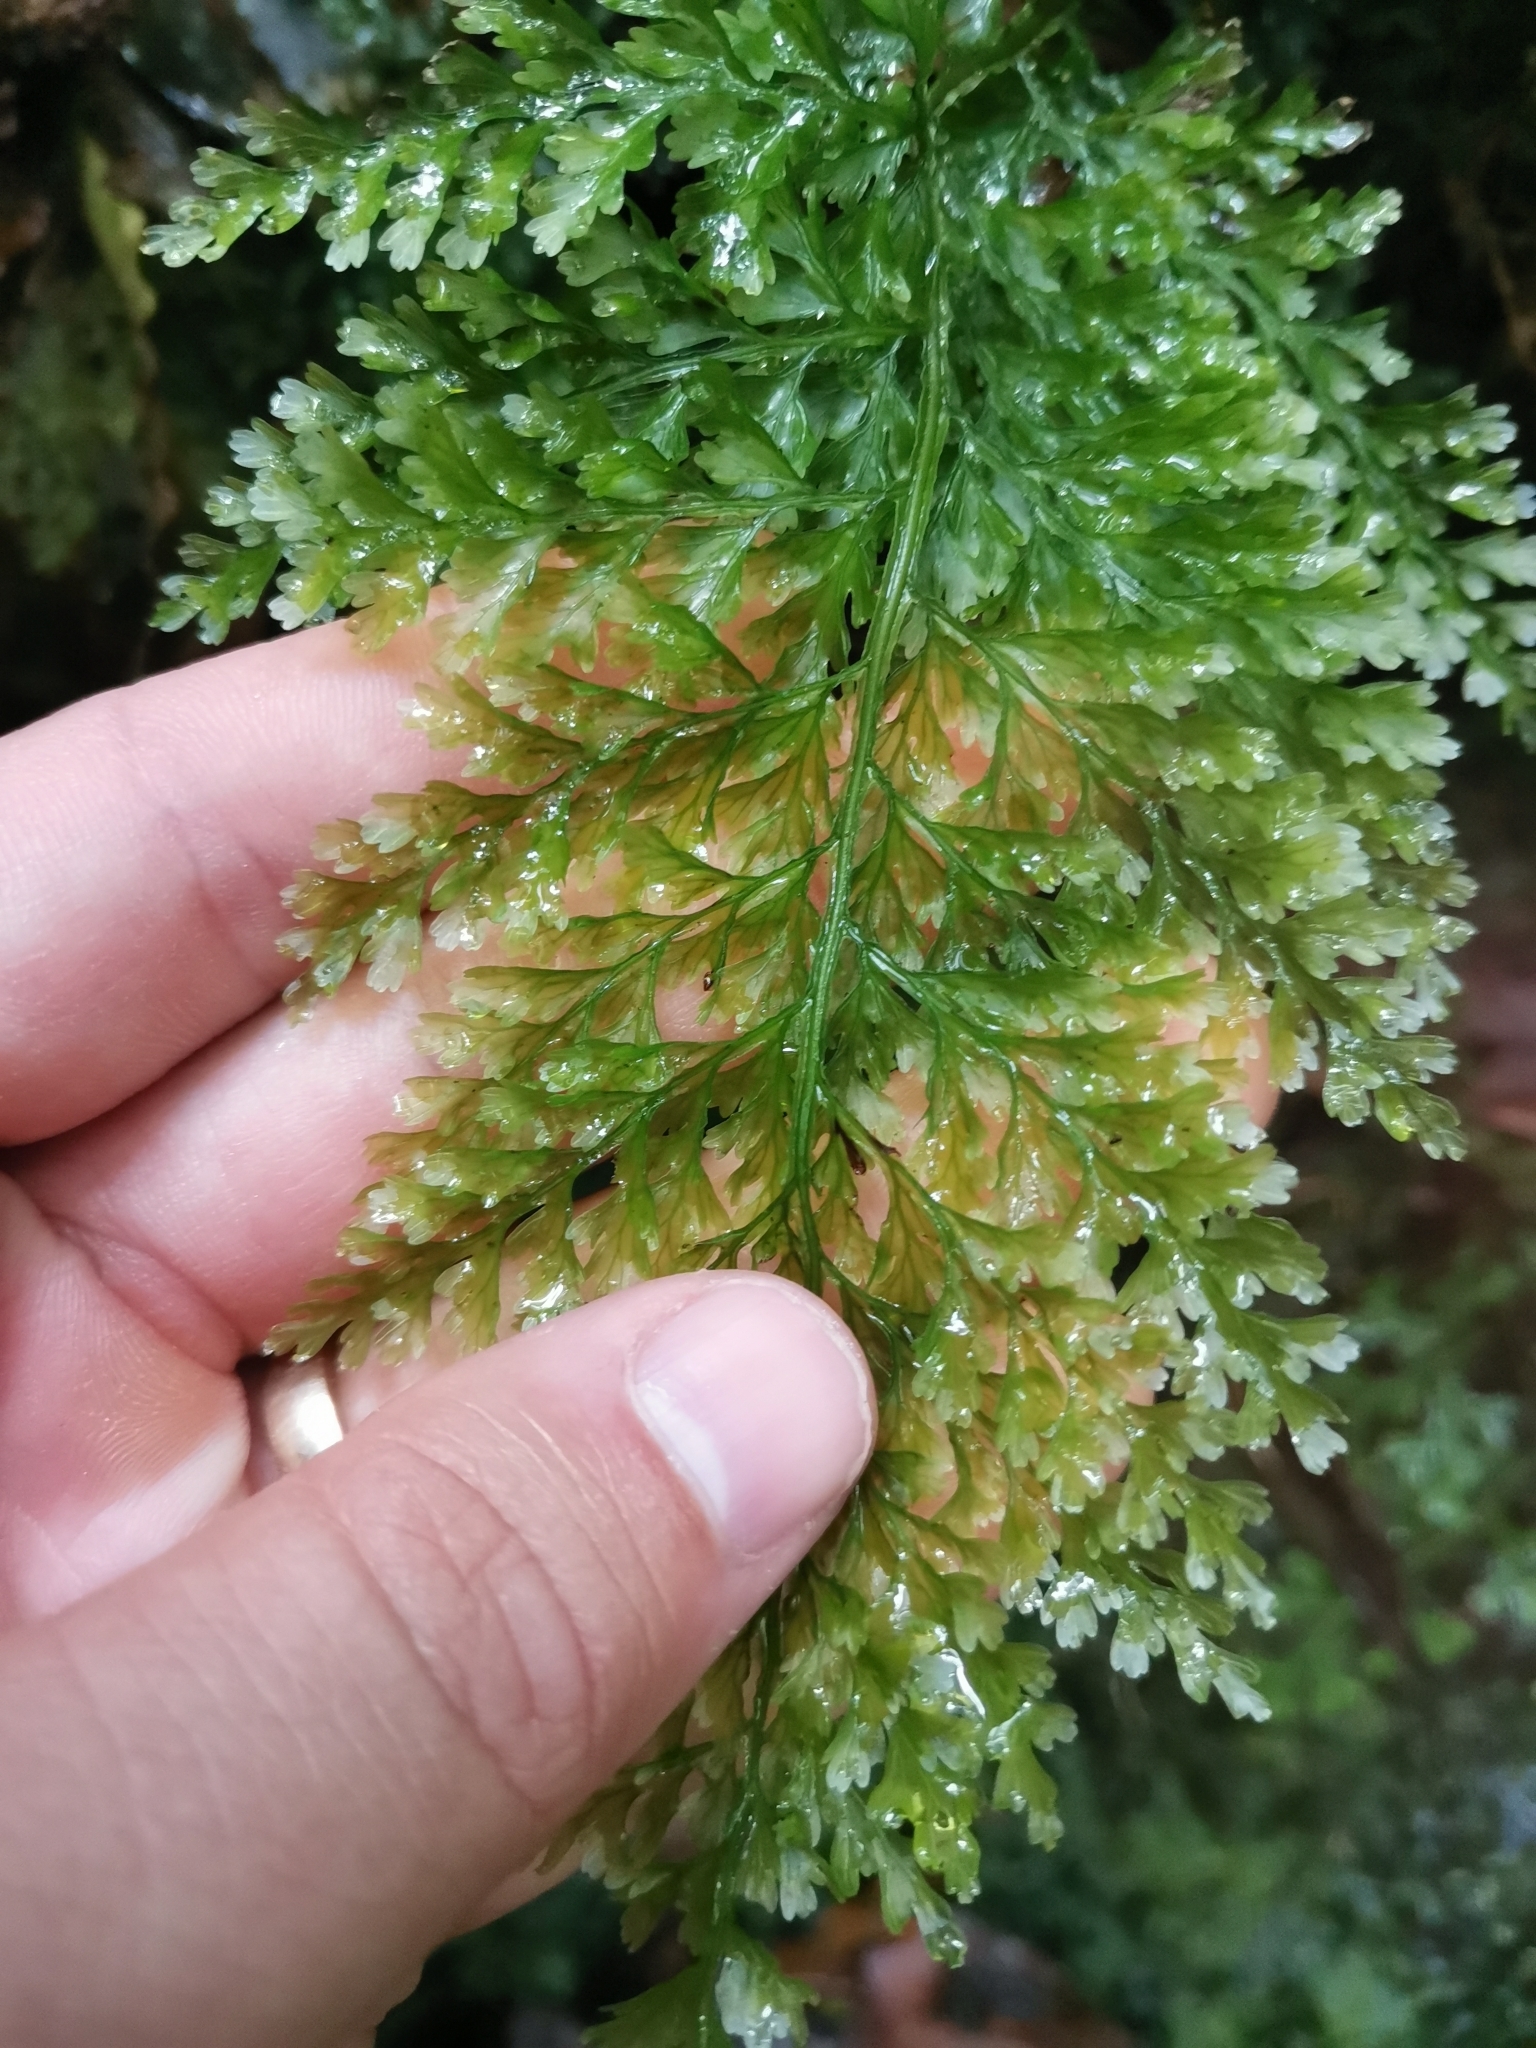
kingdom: Plantae
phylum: Tracheophyta
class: Polypodiopsida
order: Hymenophyllales
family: Hymenophyllaceae
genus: Vandenboschia
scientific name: Vandenboschia speciosa
